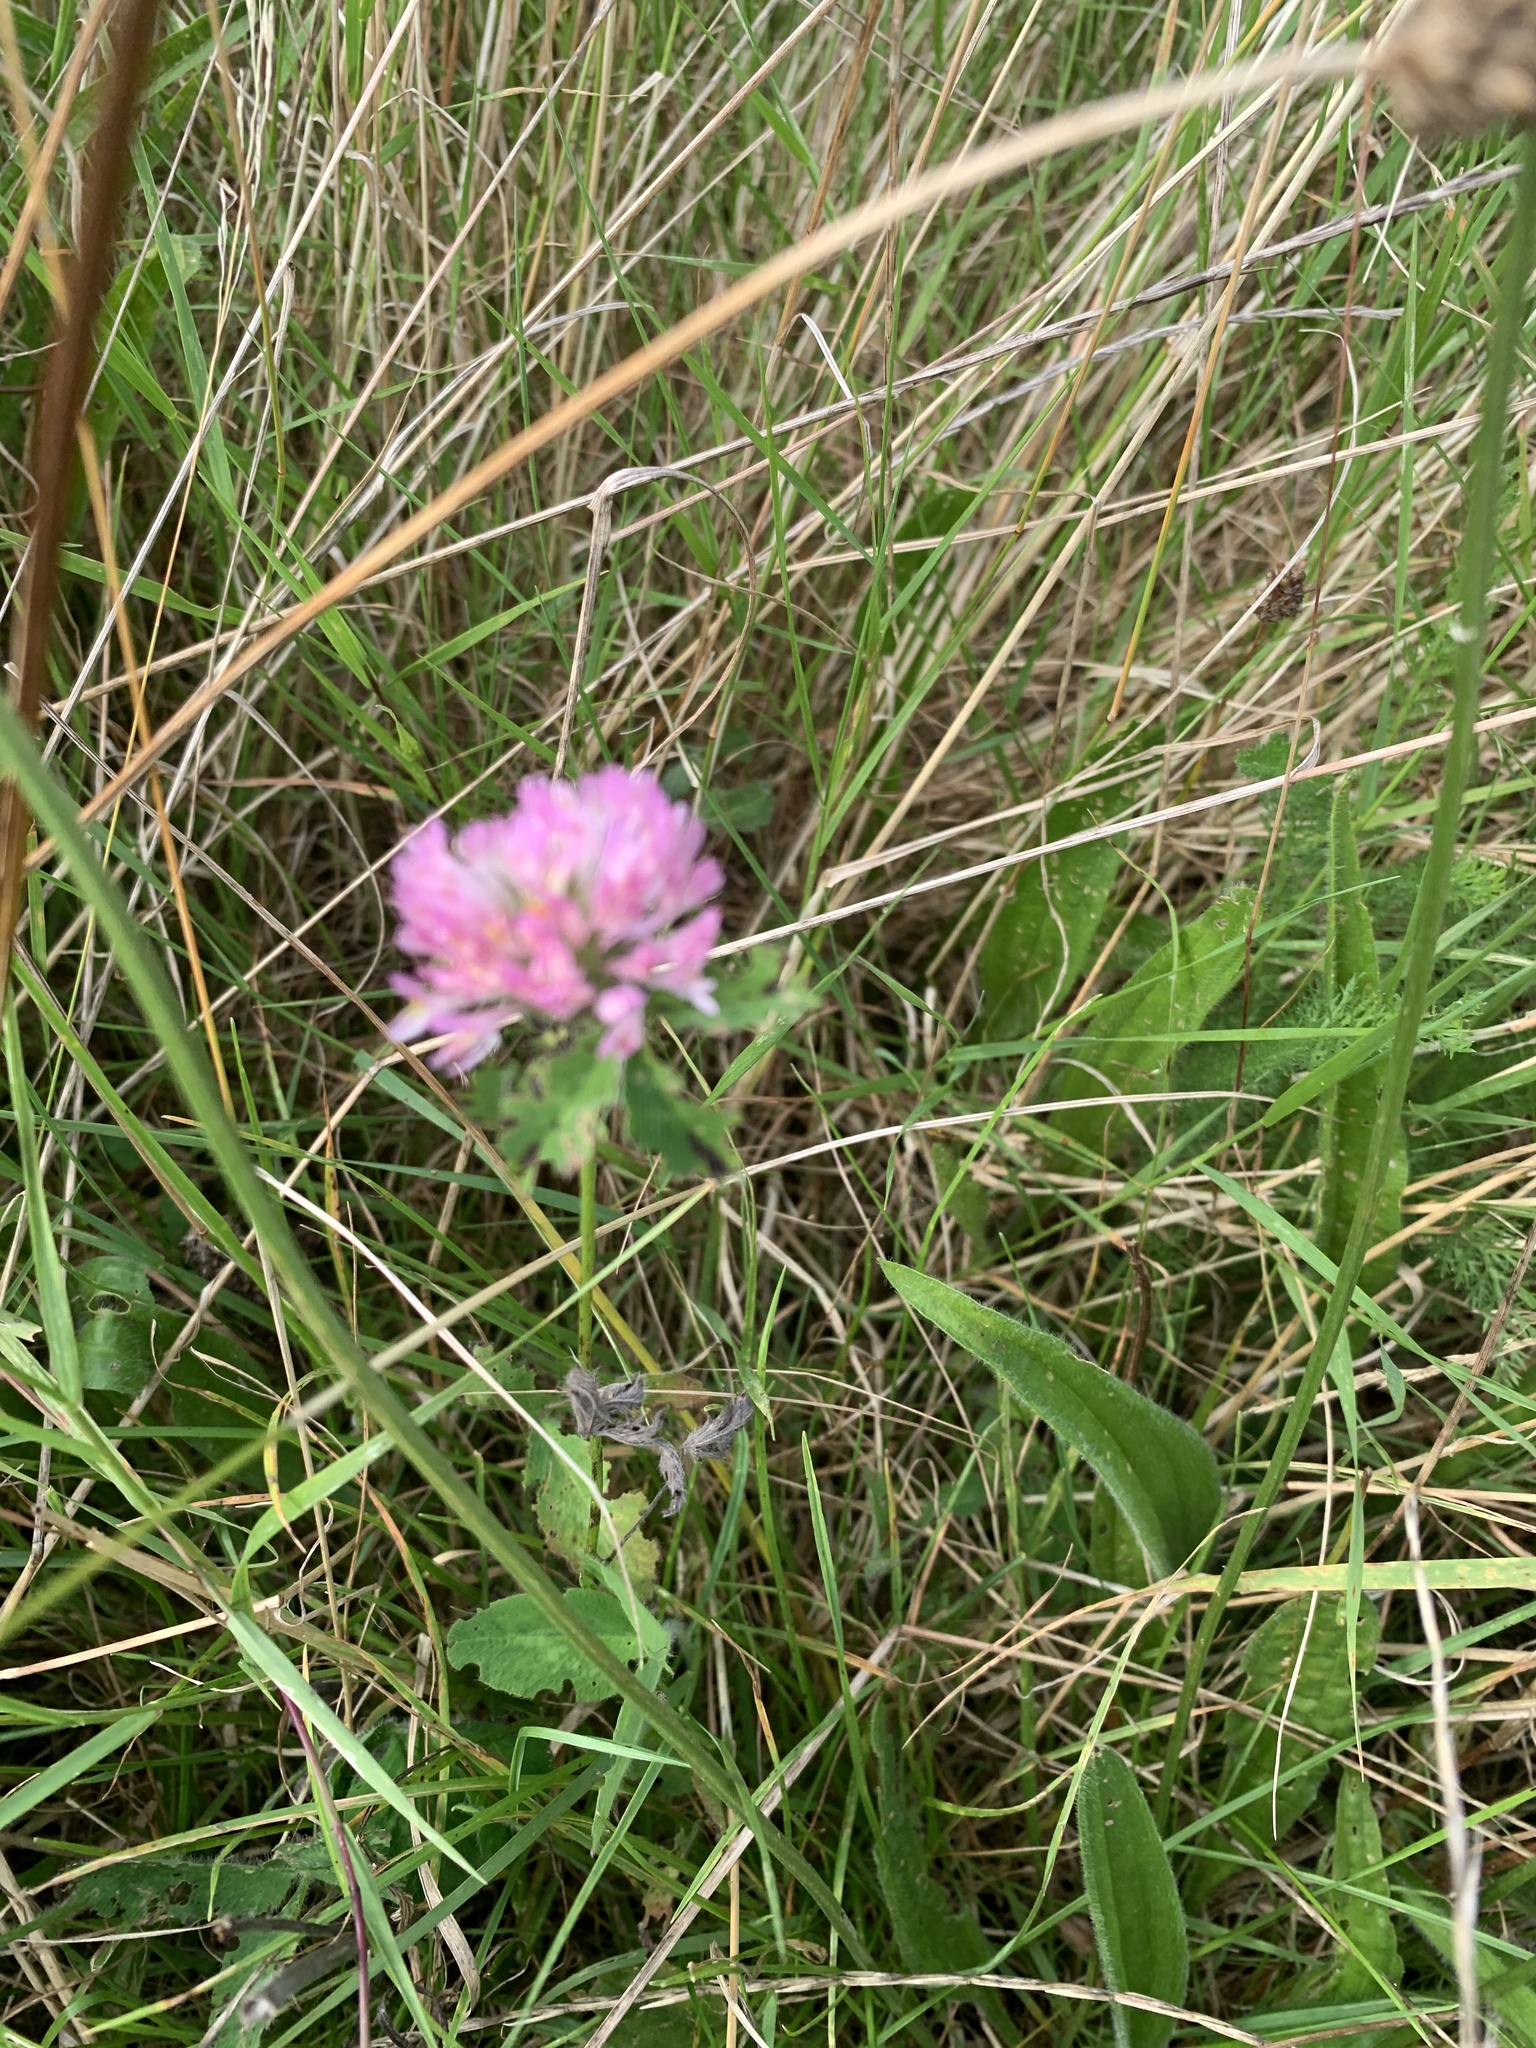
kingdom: Plantae
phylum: Tracheophyta
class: Magnoliopsida
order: Fabales
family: Fabaceae
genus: Trifolium
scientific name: Trifolium pratense
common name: Red clover
